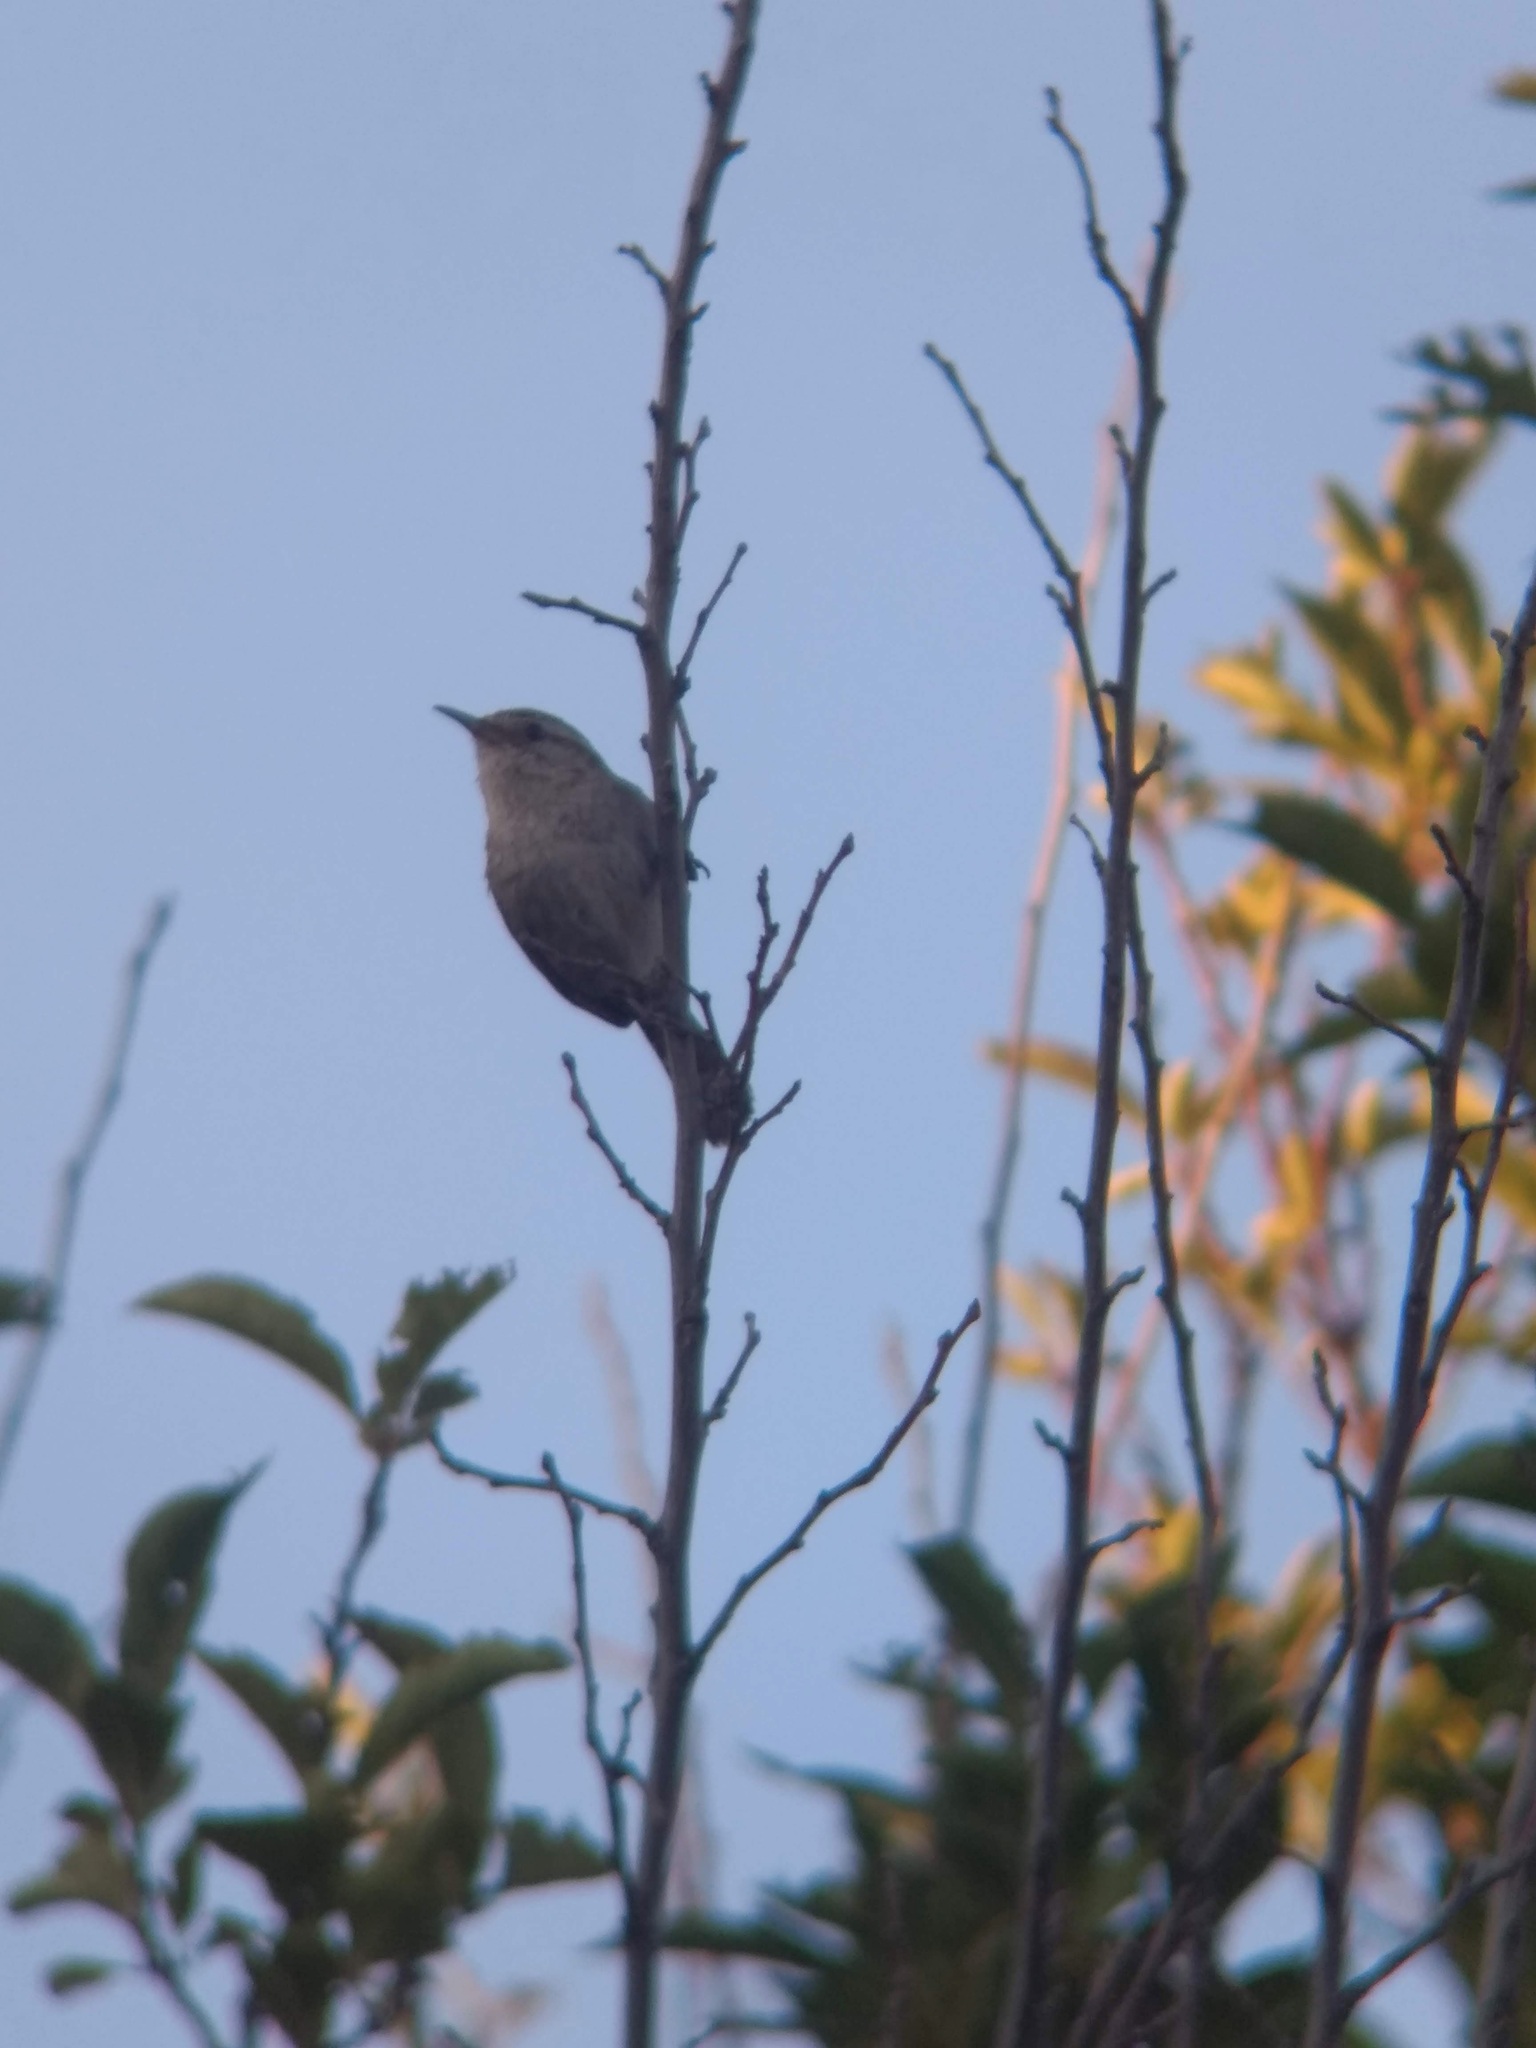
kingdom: Animalia
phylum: Chordata
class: Aves
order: Passeriformes
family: Troglodytidae
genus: Thryomanes
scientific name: Thryomanes bewickii
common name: Bewick's wren
